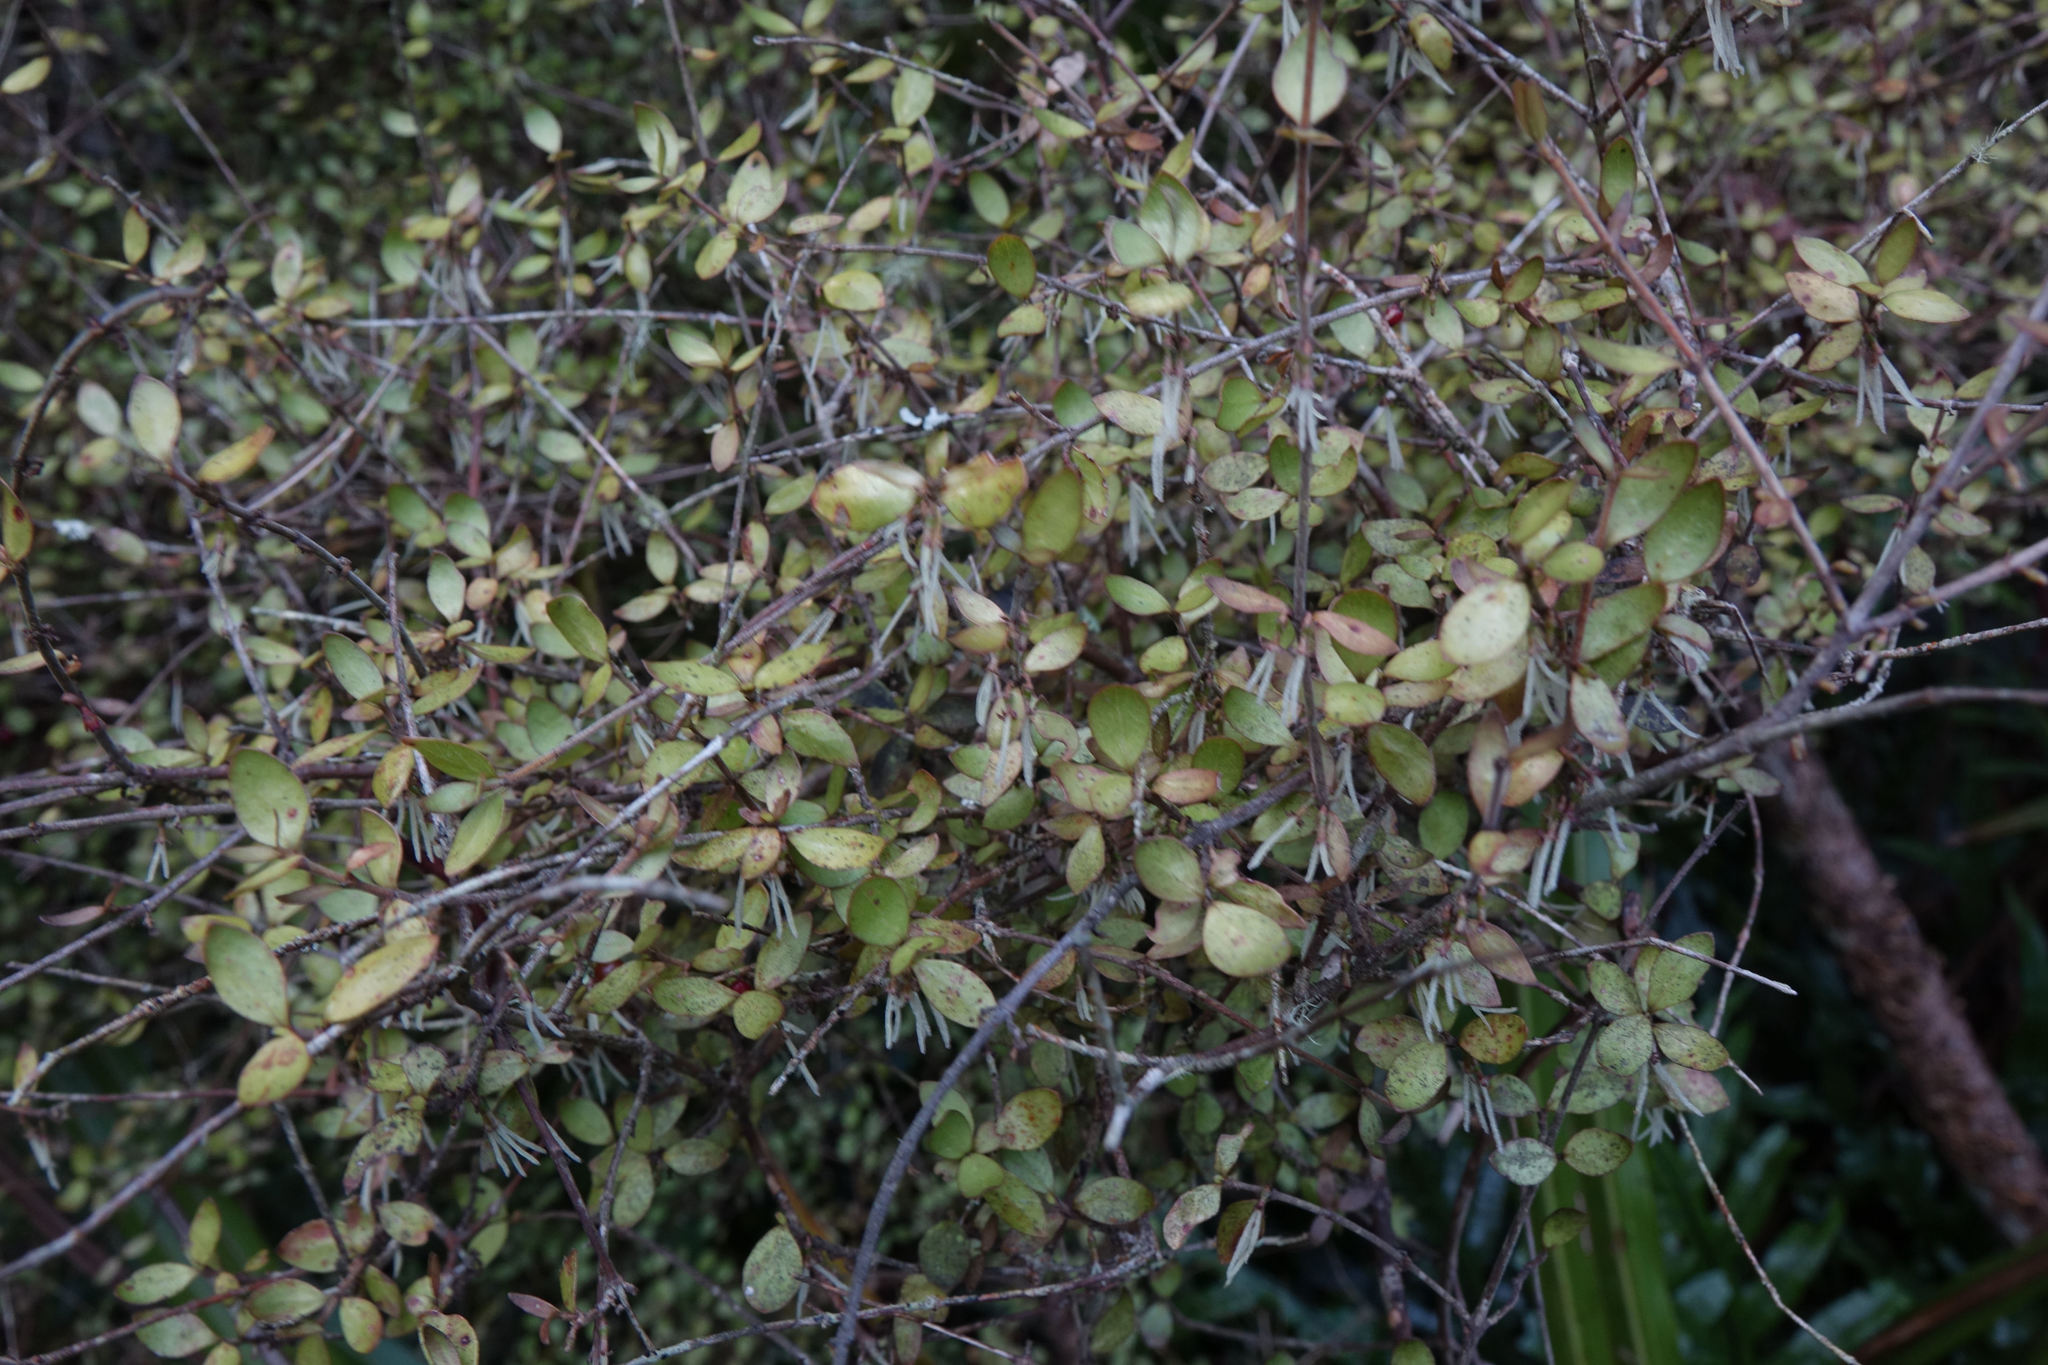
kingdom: Plantae
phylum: Tracheophyta
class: Magnoliopsida
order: Gentianales
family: Rubiaceae
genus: Coprosma
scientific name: Coprosma rhamnoides
